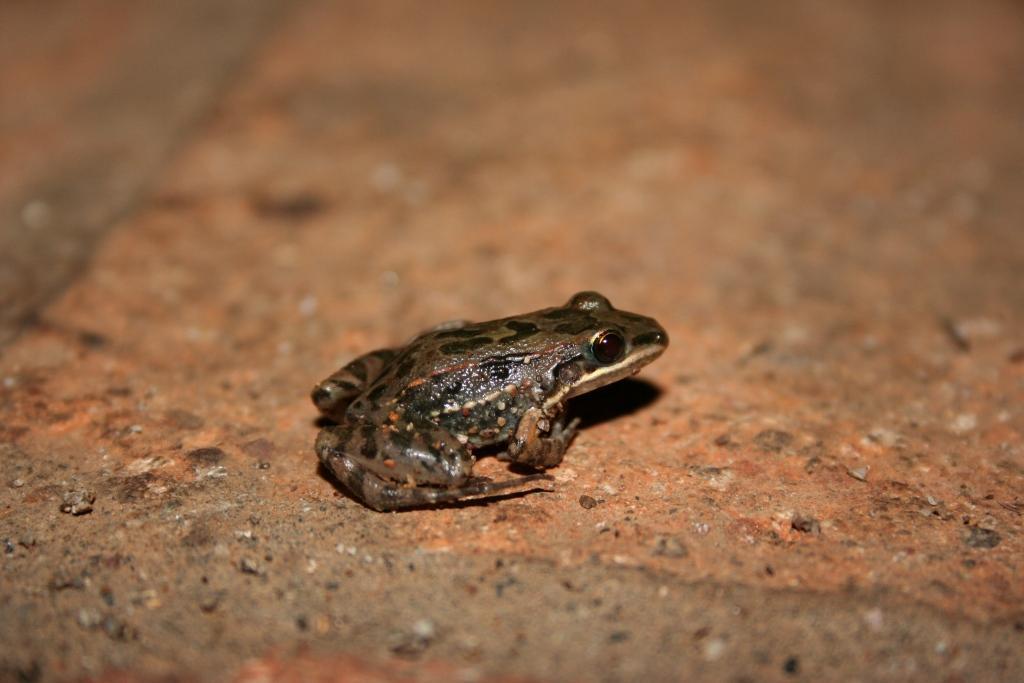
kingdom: Animalia
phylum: Chordata
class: Amphibia
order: Anura
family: Leptodactylidae
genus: Leptodactylus
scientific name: Leptodactylus fragilis
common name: Mexican white-lipped frog
